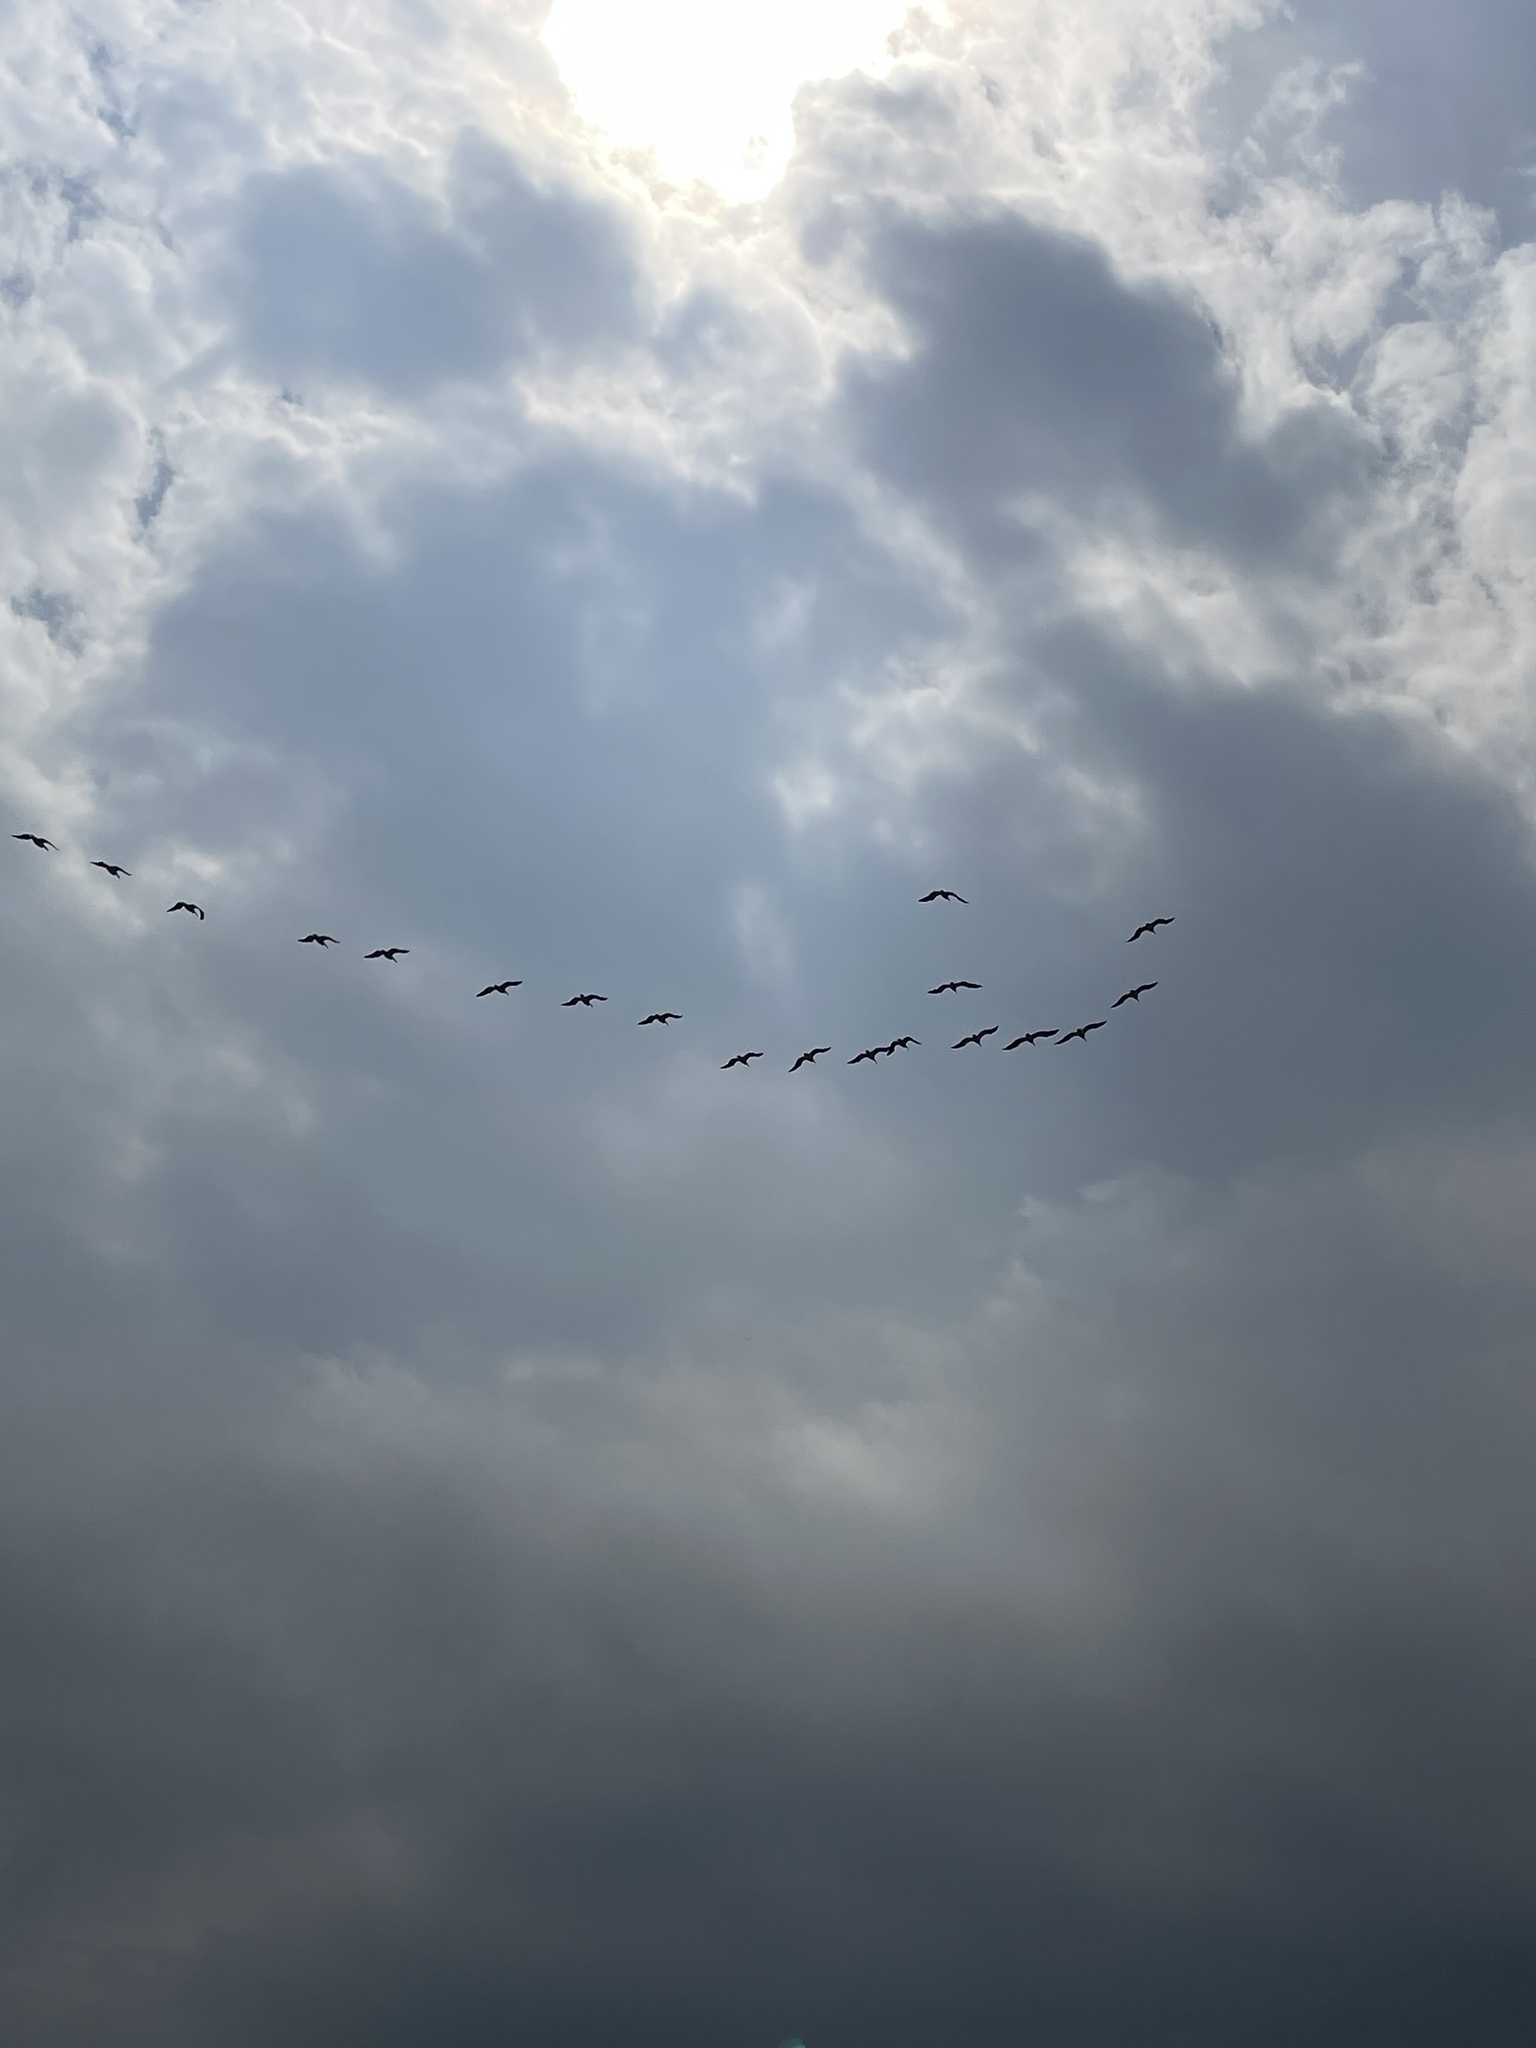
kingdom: Animalia
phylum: Chordata
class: Aves
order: Pelecaniformes
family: Pelecanidae
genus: Pelecanus
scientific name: Pelecanus erythrorhynchos
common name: American white pelican
